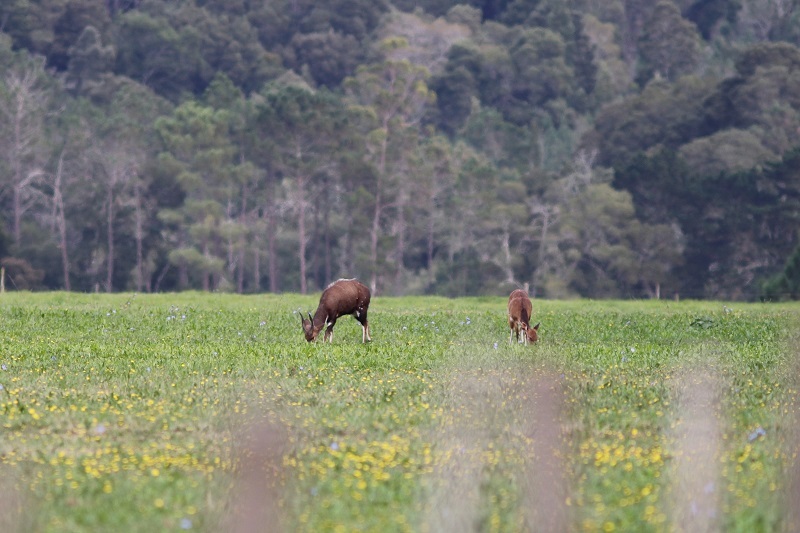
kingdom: Animalia
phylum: Chordata
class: Mammalia
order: Artiodactyla
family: Bovidae
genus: Tragelaphus
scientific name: Tragelaphus scriptus
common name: Bushbuck
